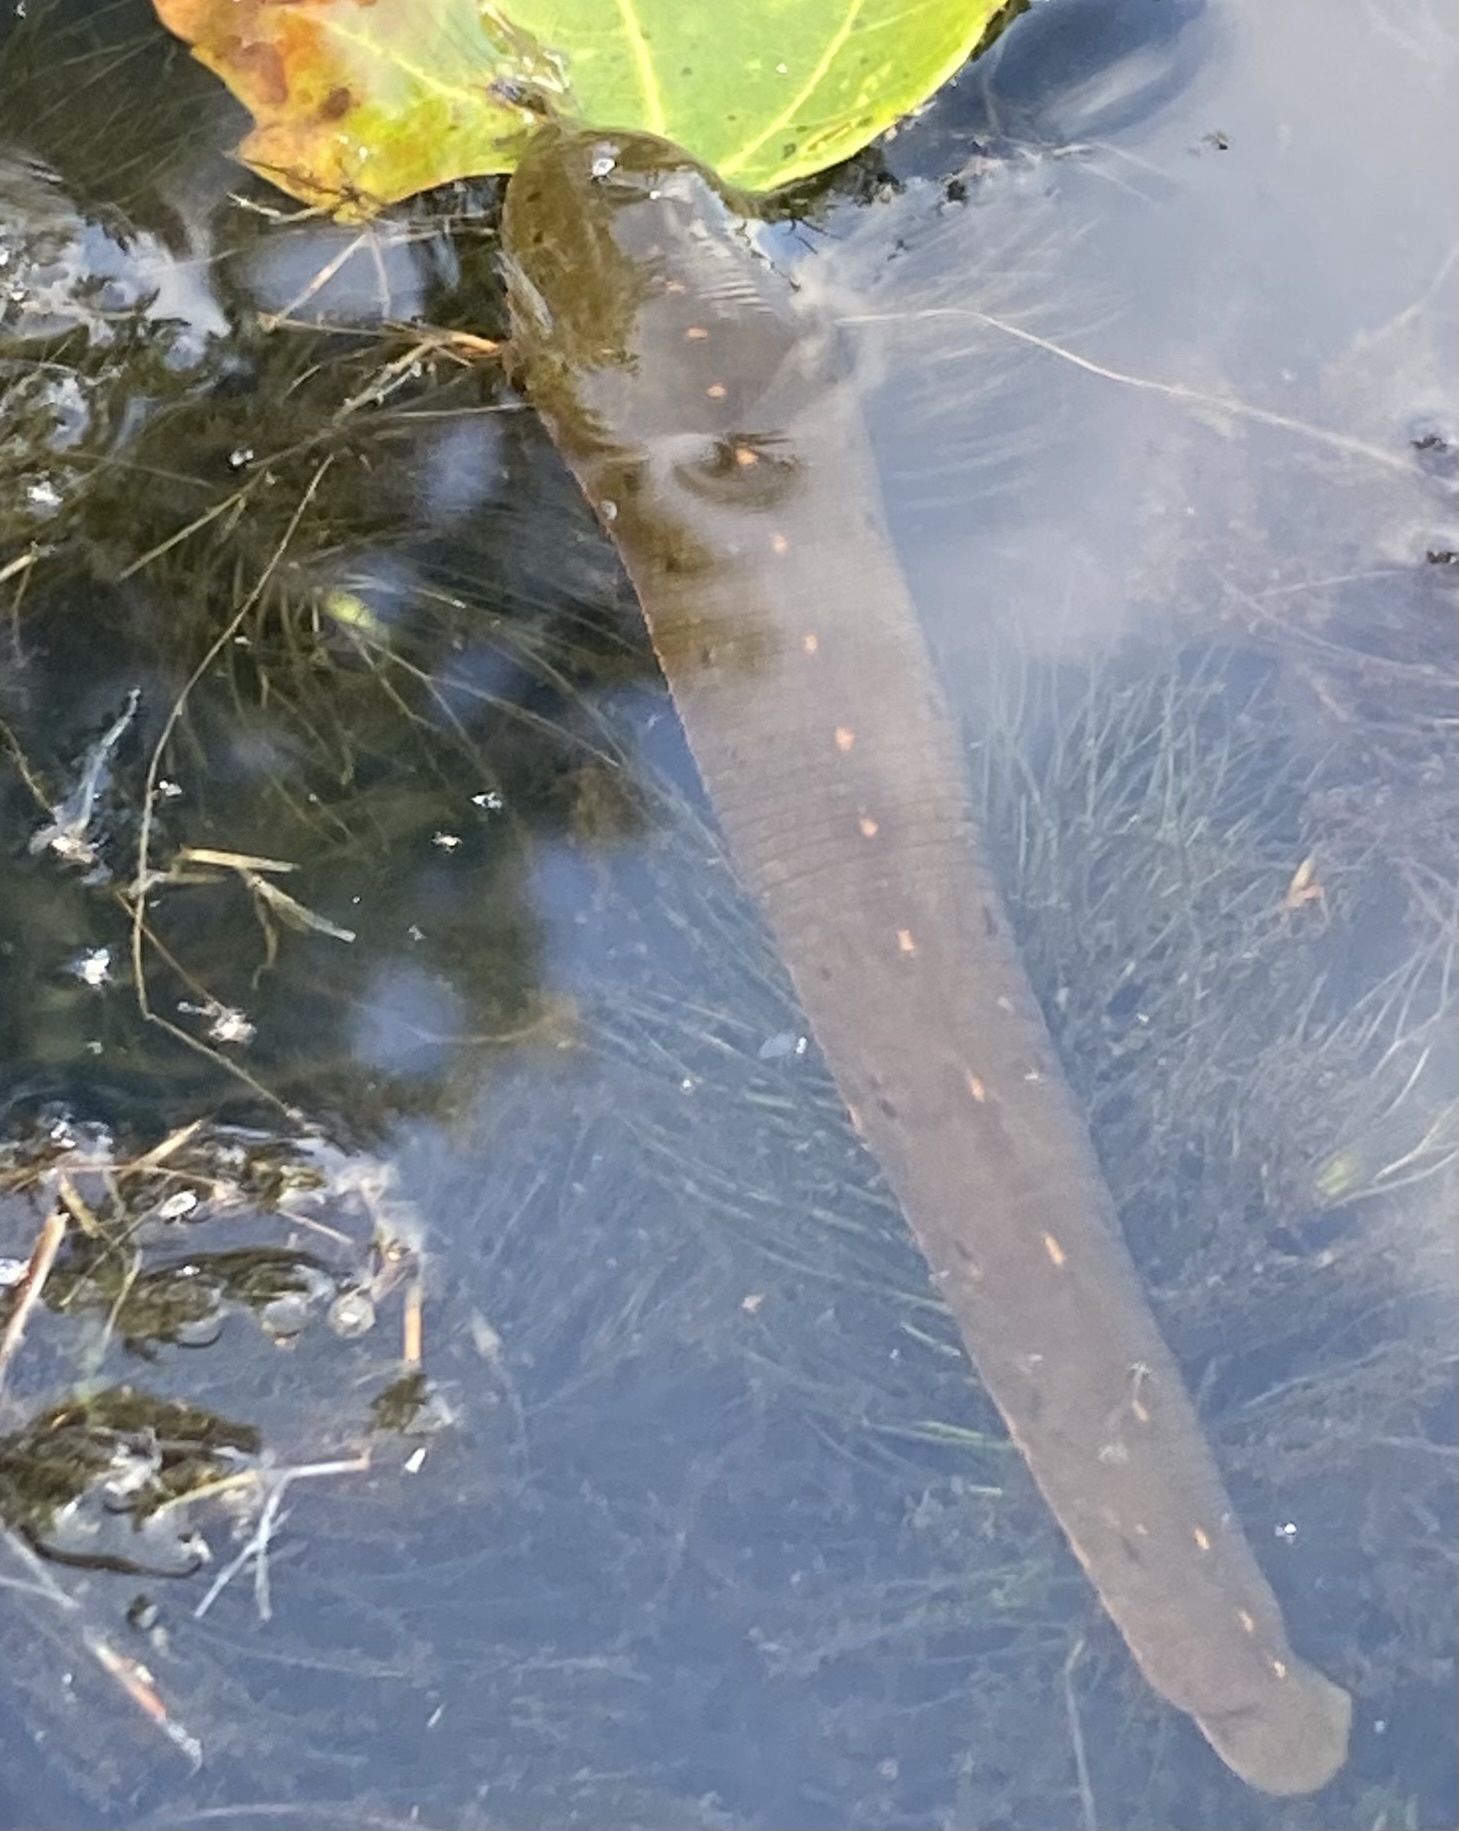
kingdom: Animalia
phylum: Annelida
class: Clitellata
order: Arhynchobdellida
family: Hirudinidae
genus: Macrobdella
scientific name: Macrobdella decora
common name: North american leech
